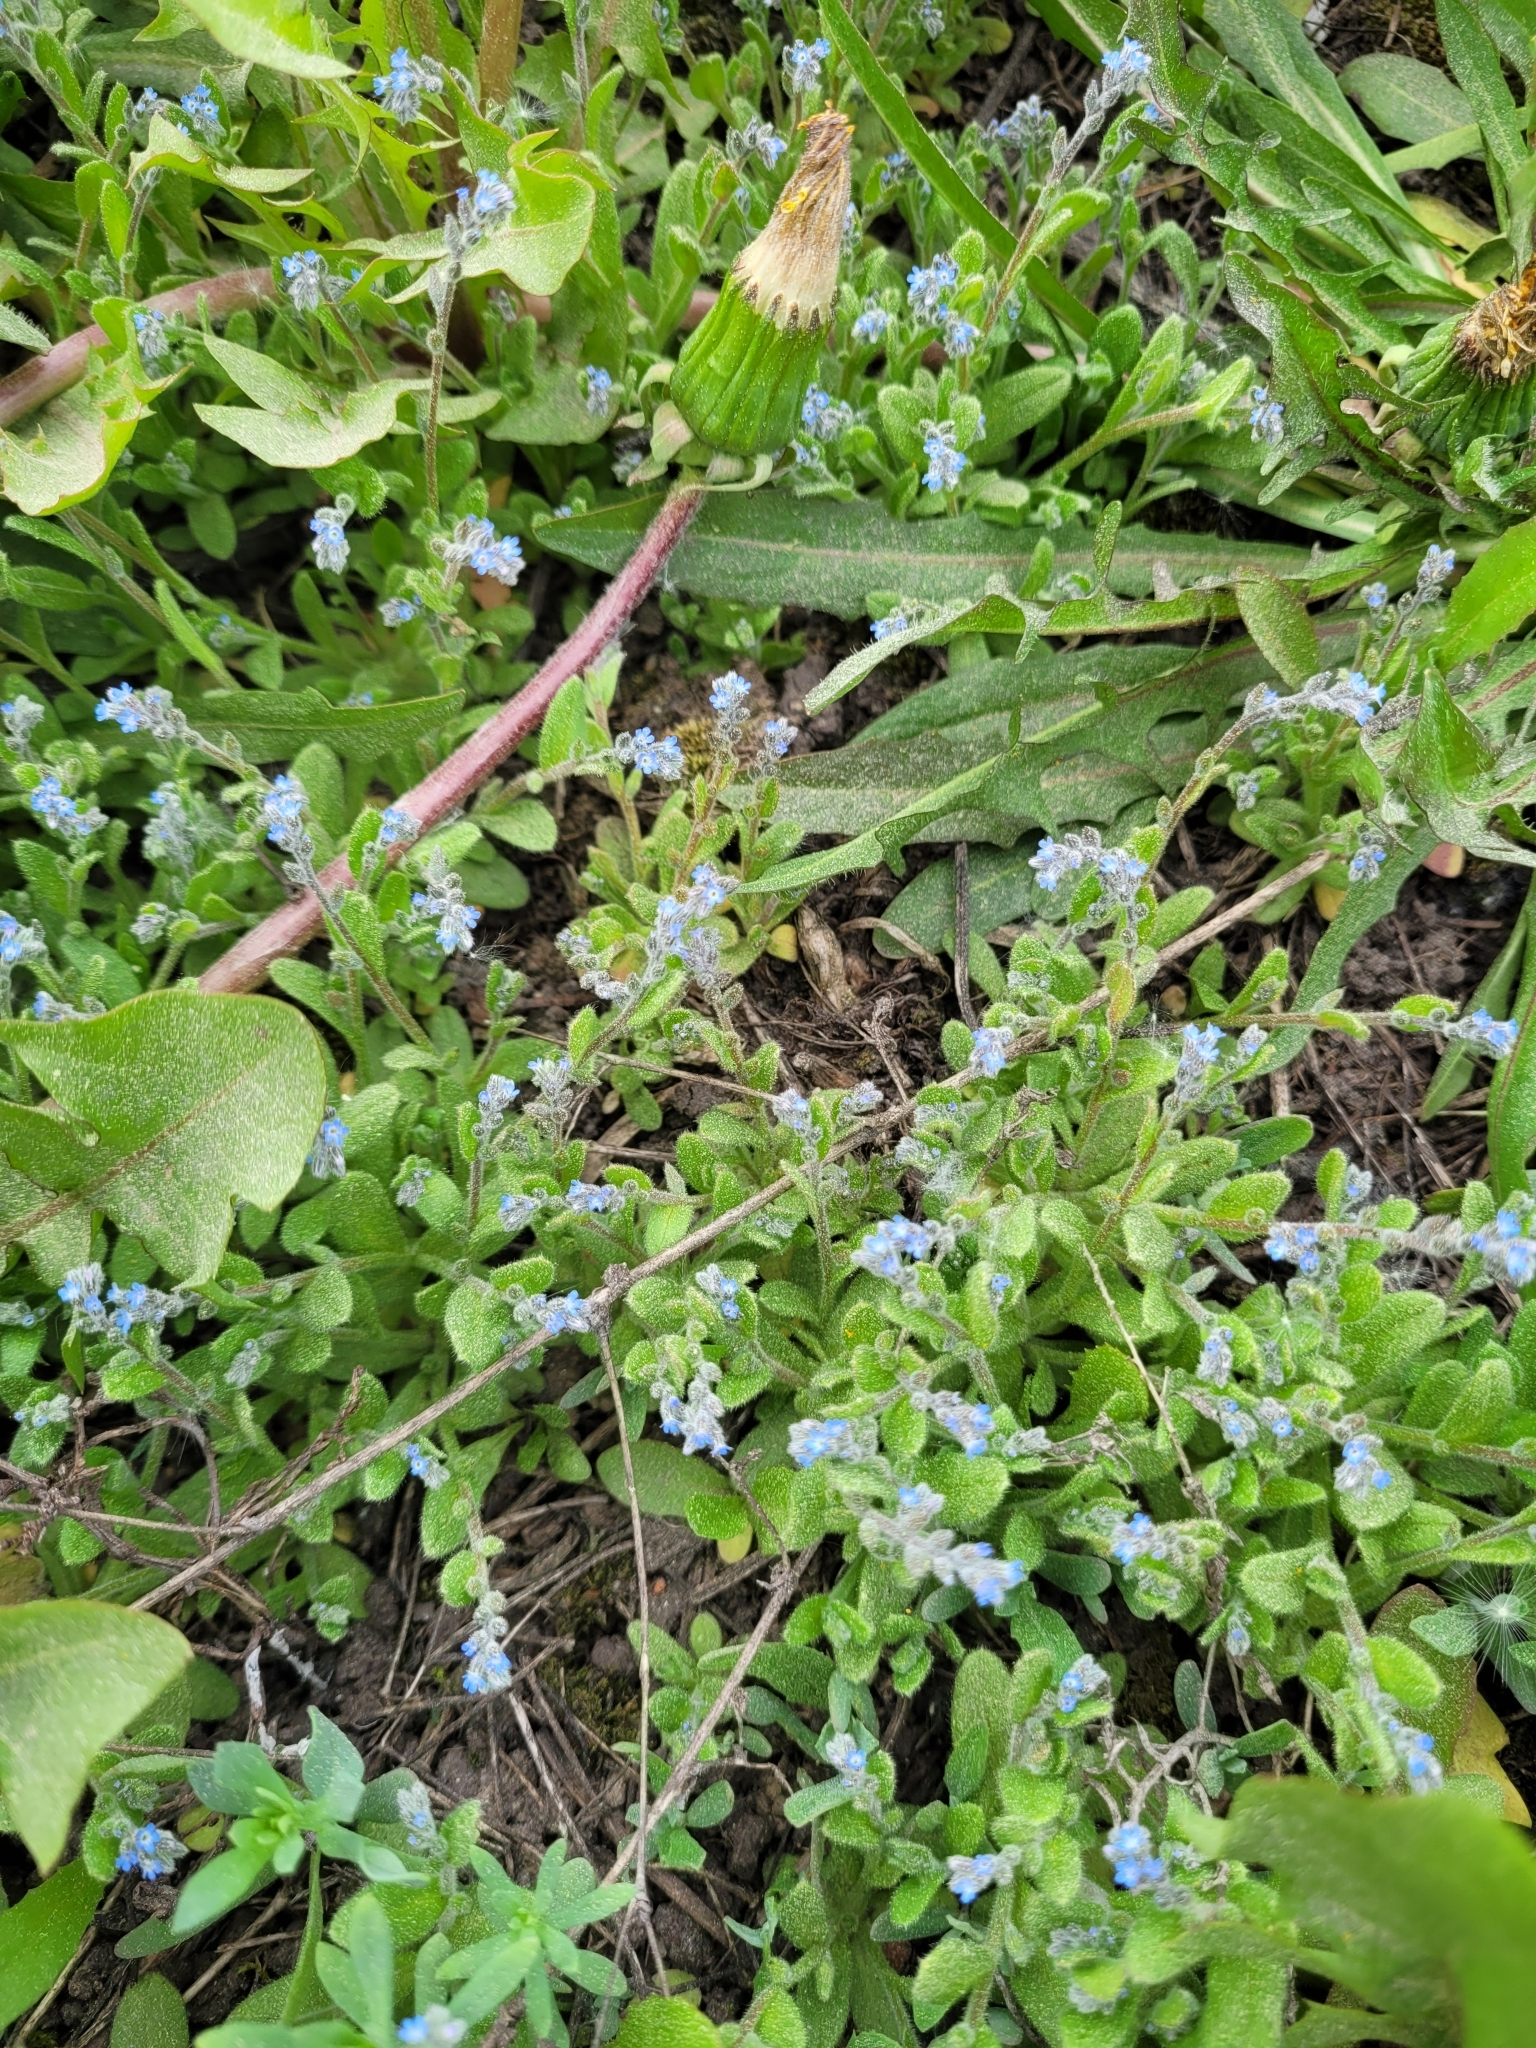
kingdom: Plantae
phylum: Tracheophyta
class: Magnoliopsida
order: Boraginales
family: Boraginaceae
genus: Myosotis
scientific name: Myosotis stricta
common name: Strict forget-me-not
